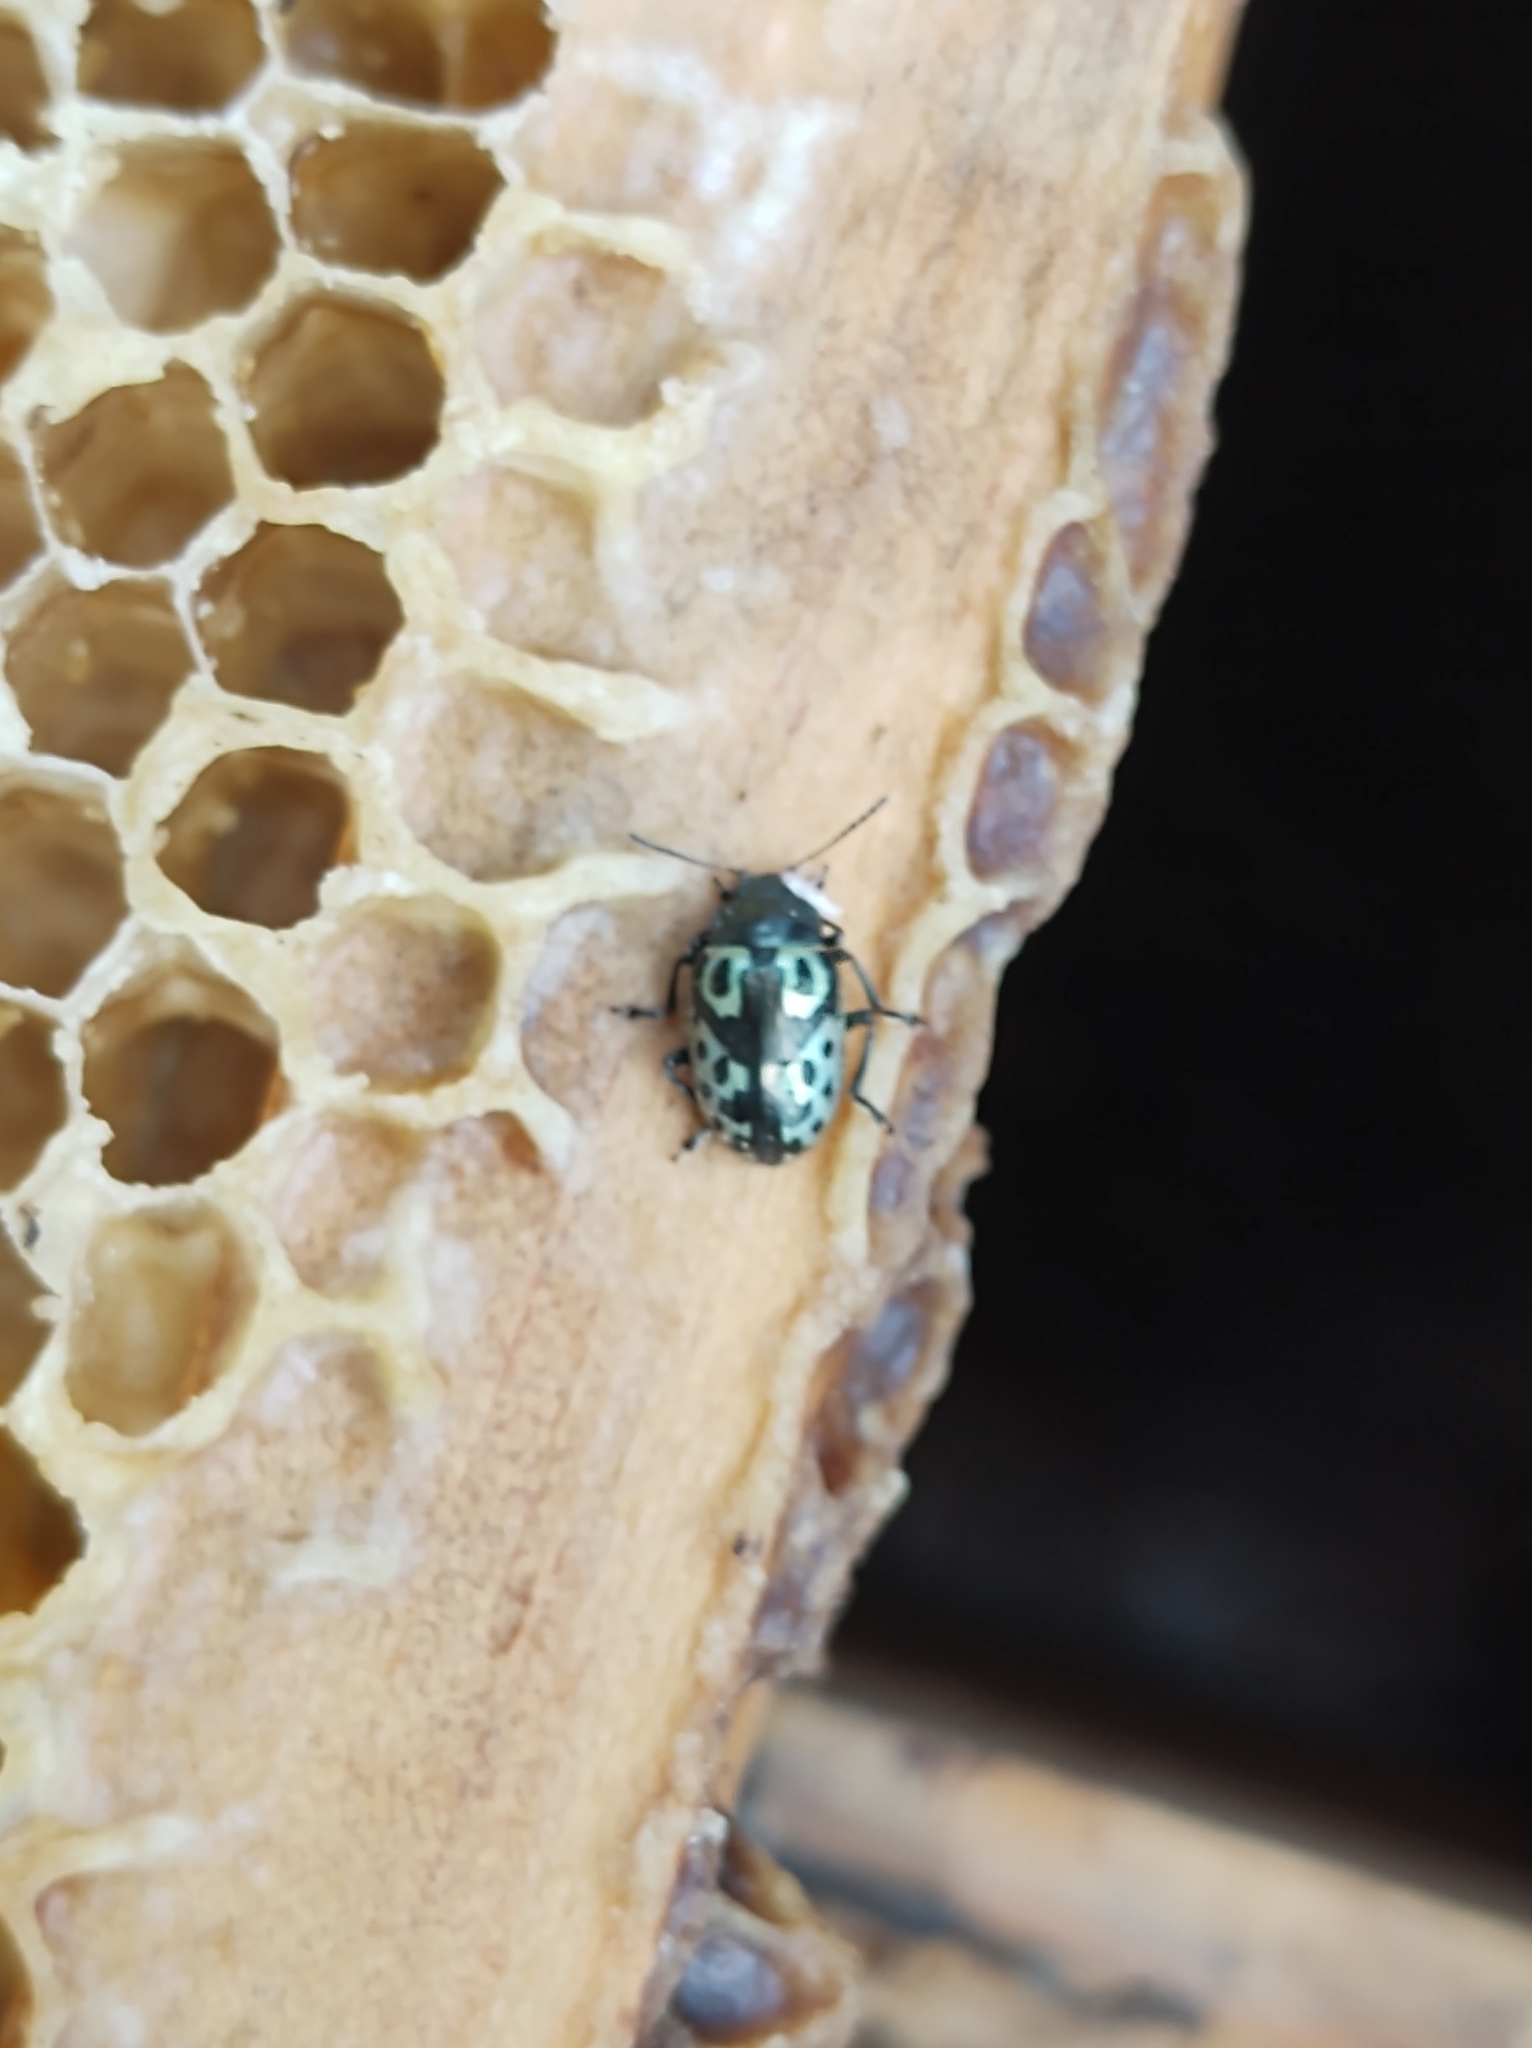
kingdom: Animalia
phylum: Arthropoda
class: Insecta
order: Coleoptera
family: Chrysomelidae
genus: Calligrapha
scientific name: Calligrapha
